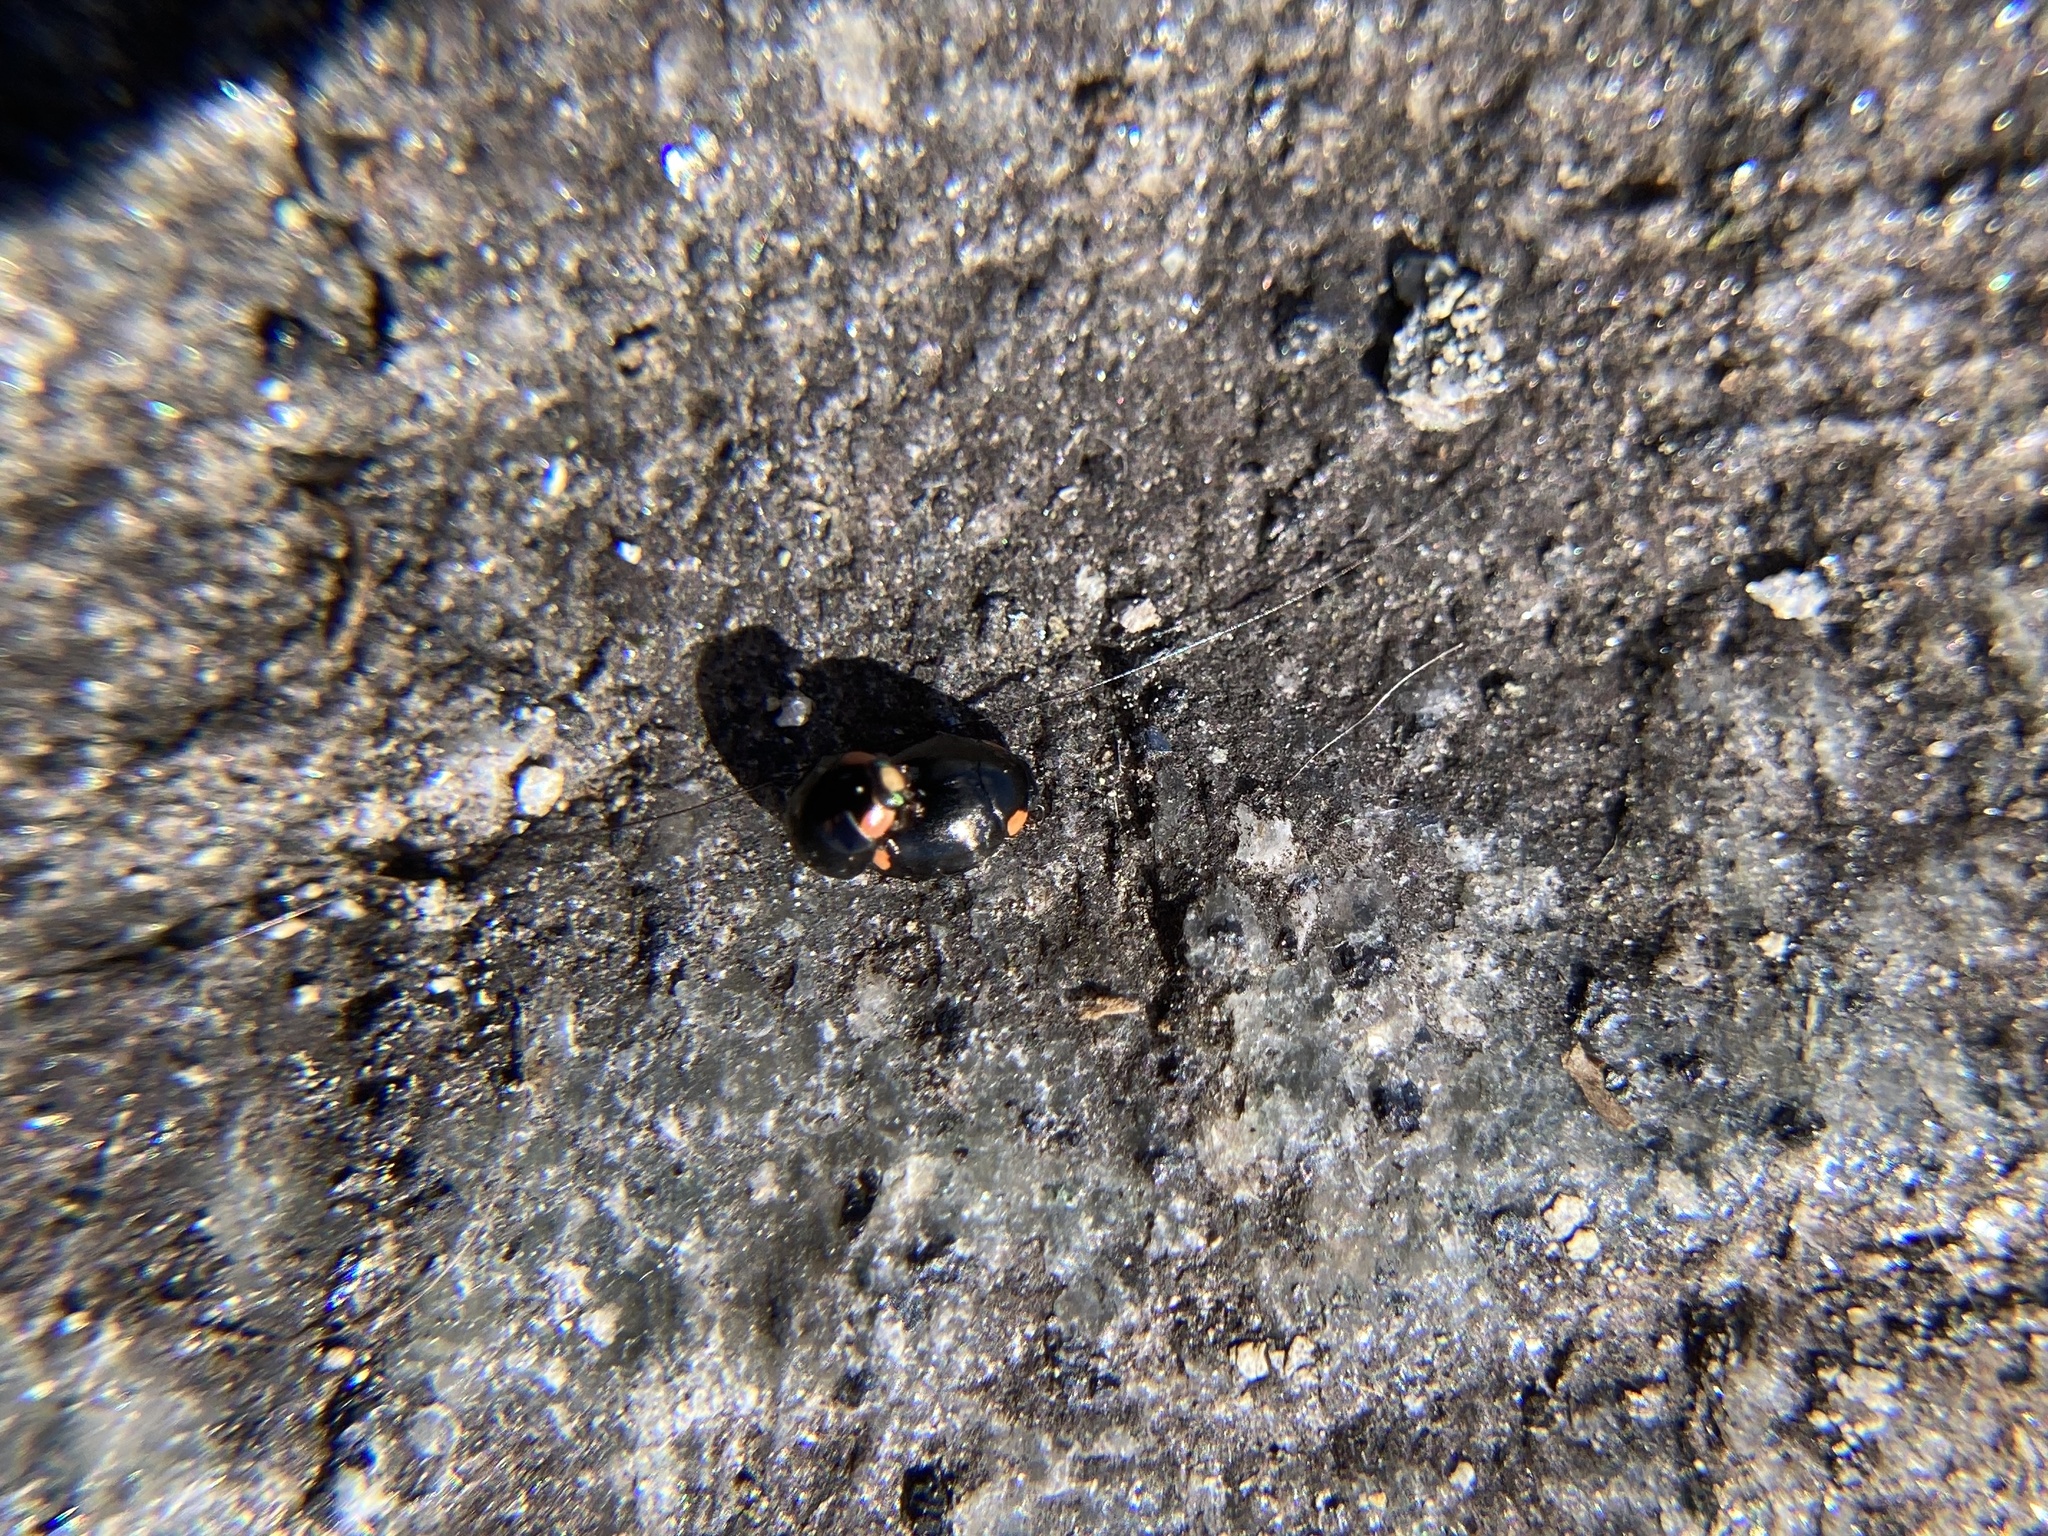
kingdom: Animalia
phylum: Arthropoda
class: Insecta
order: Coleoptera
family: Coccinellidae
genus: Hyperaspis
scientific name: Hyperaspis bigeminata
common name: Bigeminate sigil lady beetle
